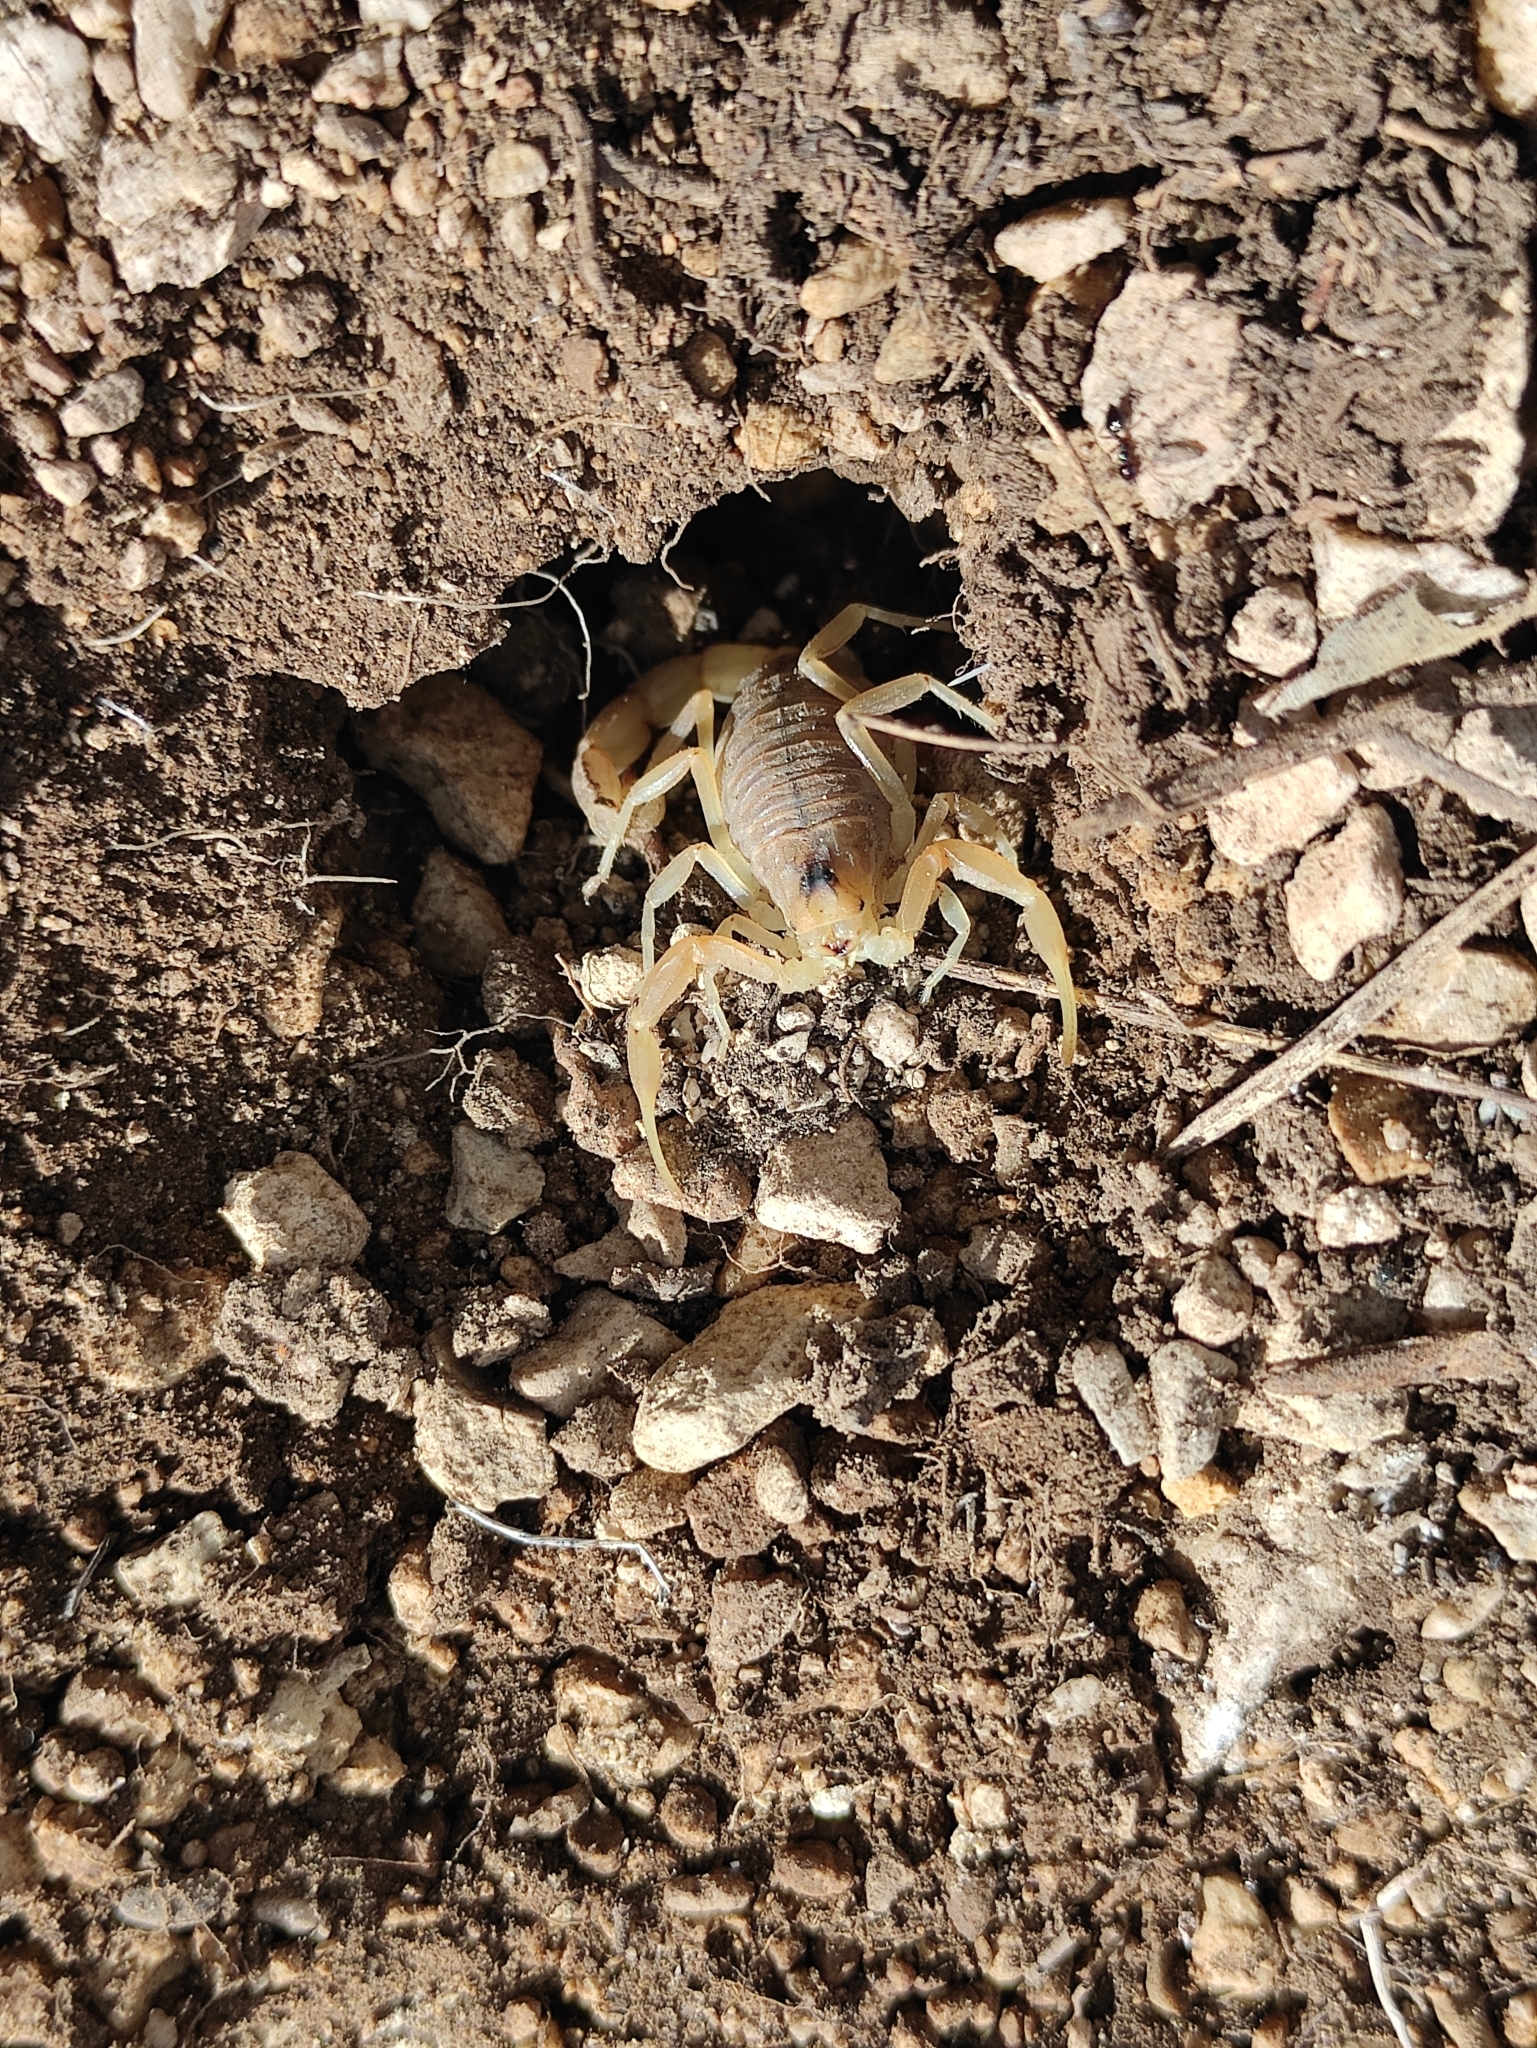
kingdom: Animalia
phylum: Arthropoda
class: Arachnida
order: Scorpiones
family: Buthidae
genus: Buthus
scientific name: Buthus balmensis
